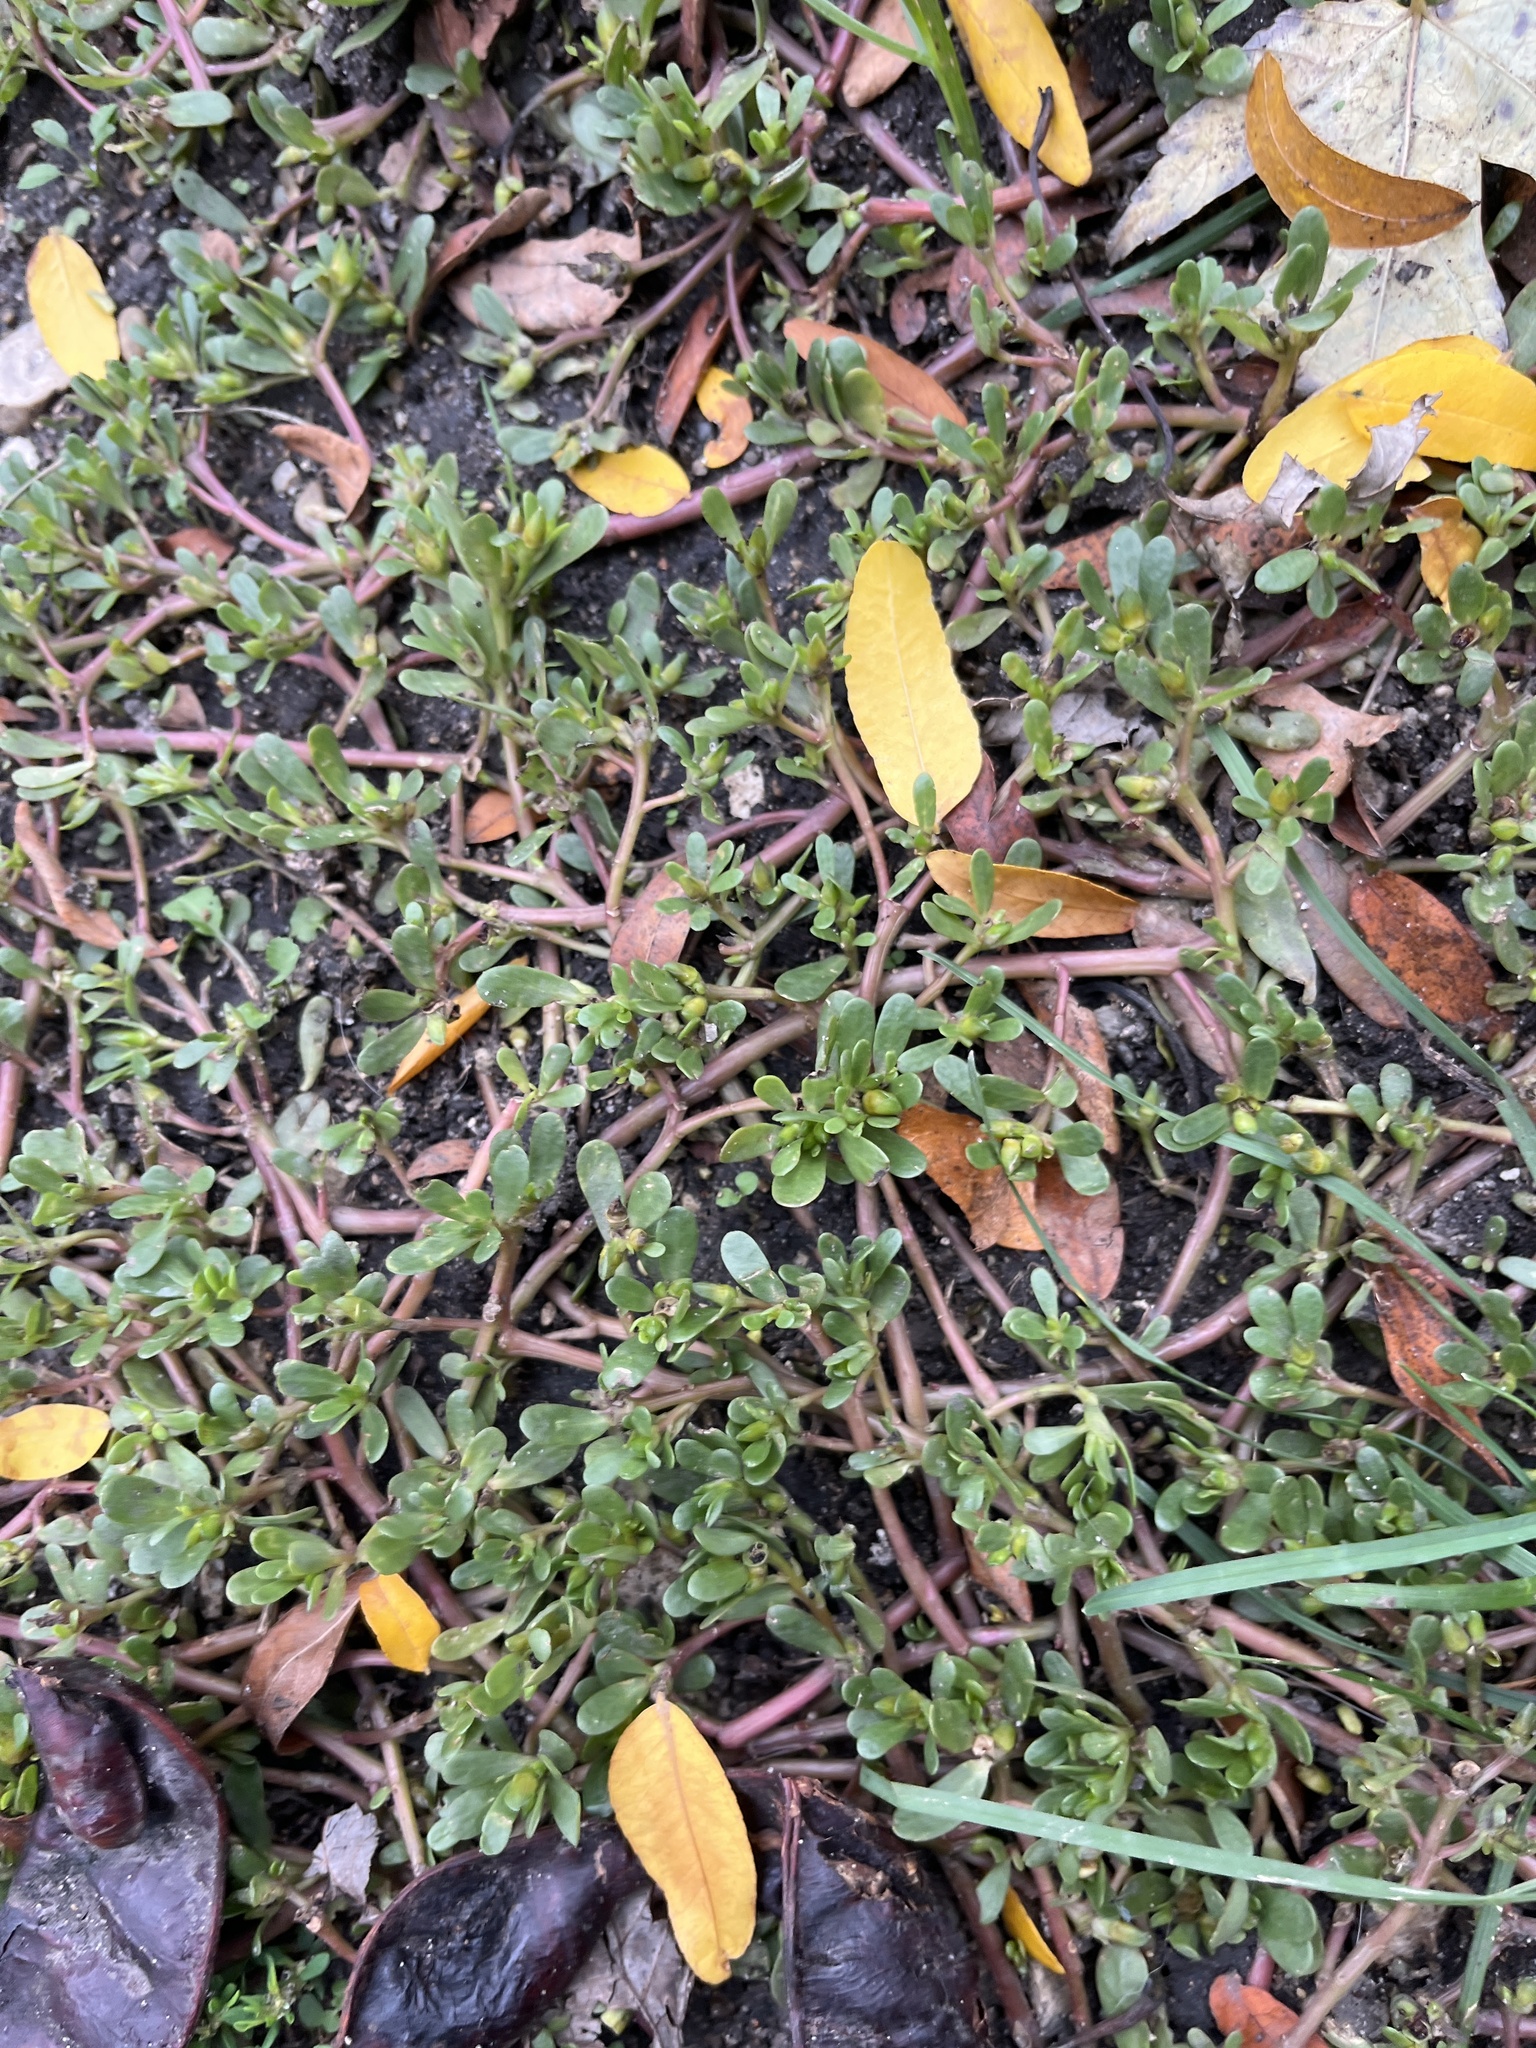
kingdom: Plantae
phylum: Tracheophyta
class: Magnoliopsida
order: Caryophyllales
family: Portulacaceae
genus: Portulaca
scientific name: Portulaca oleracea
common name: Common purslane
